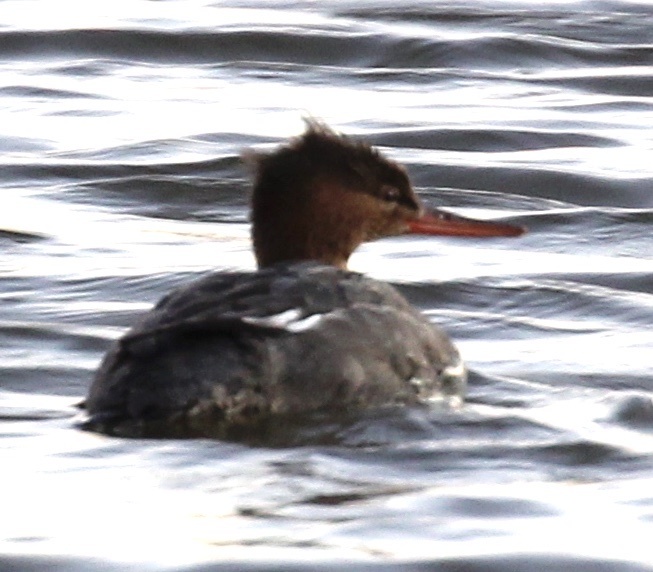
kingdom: Animalia
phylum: Chordata
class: Aves
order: Anseriformes
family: Anatidae
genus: Mergus
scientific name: Mergus serrator
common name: Red-breasted merganser
